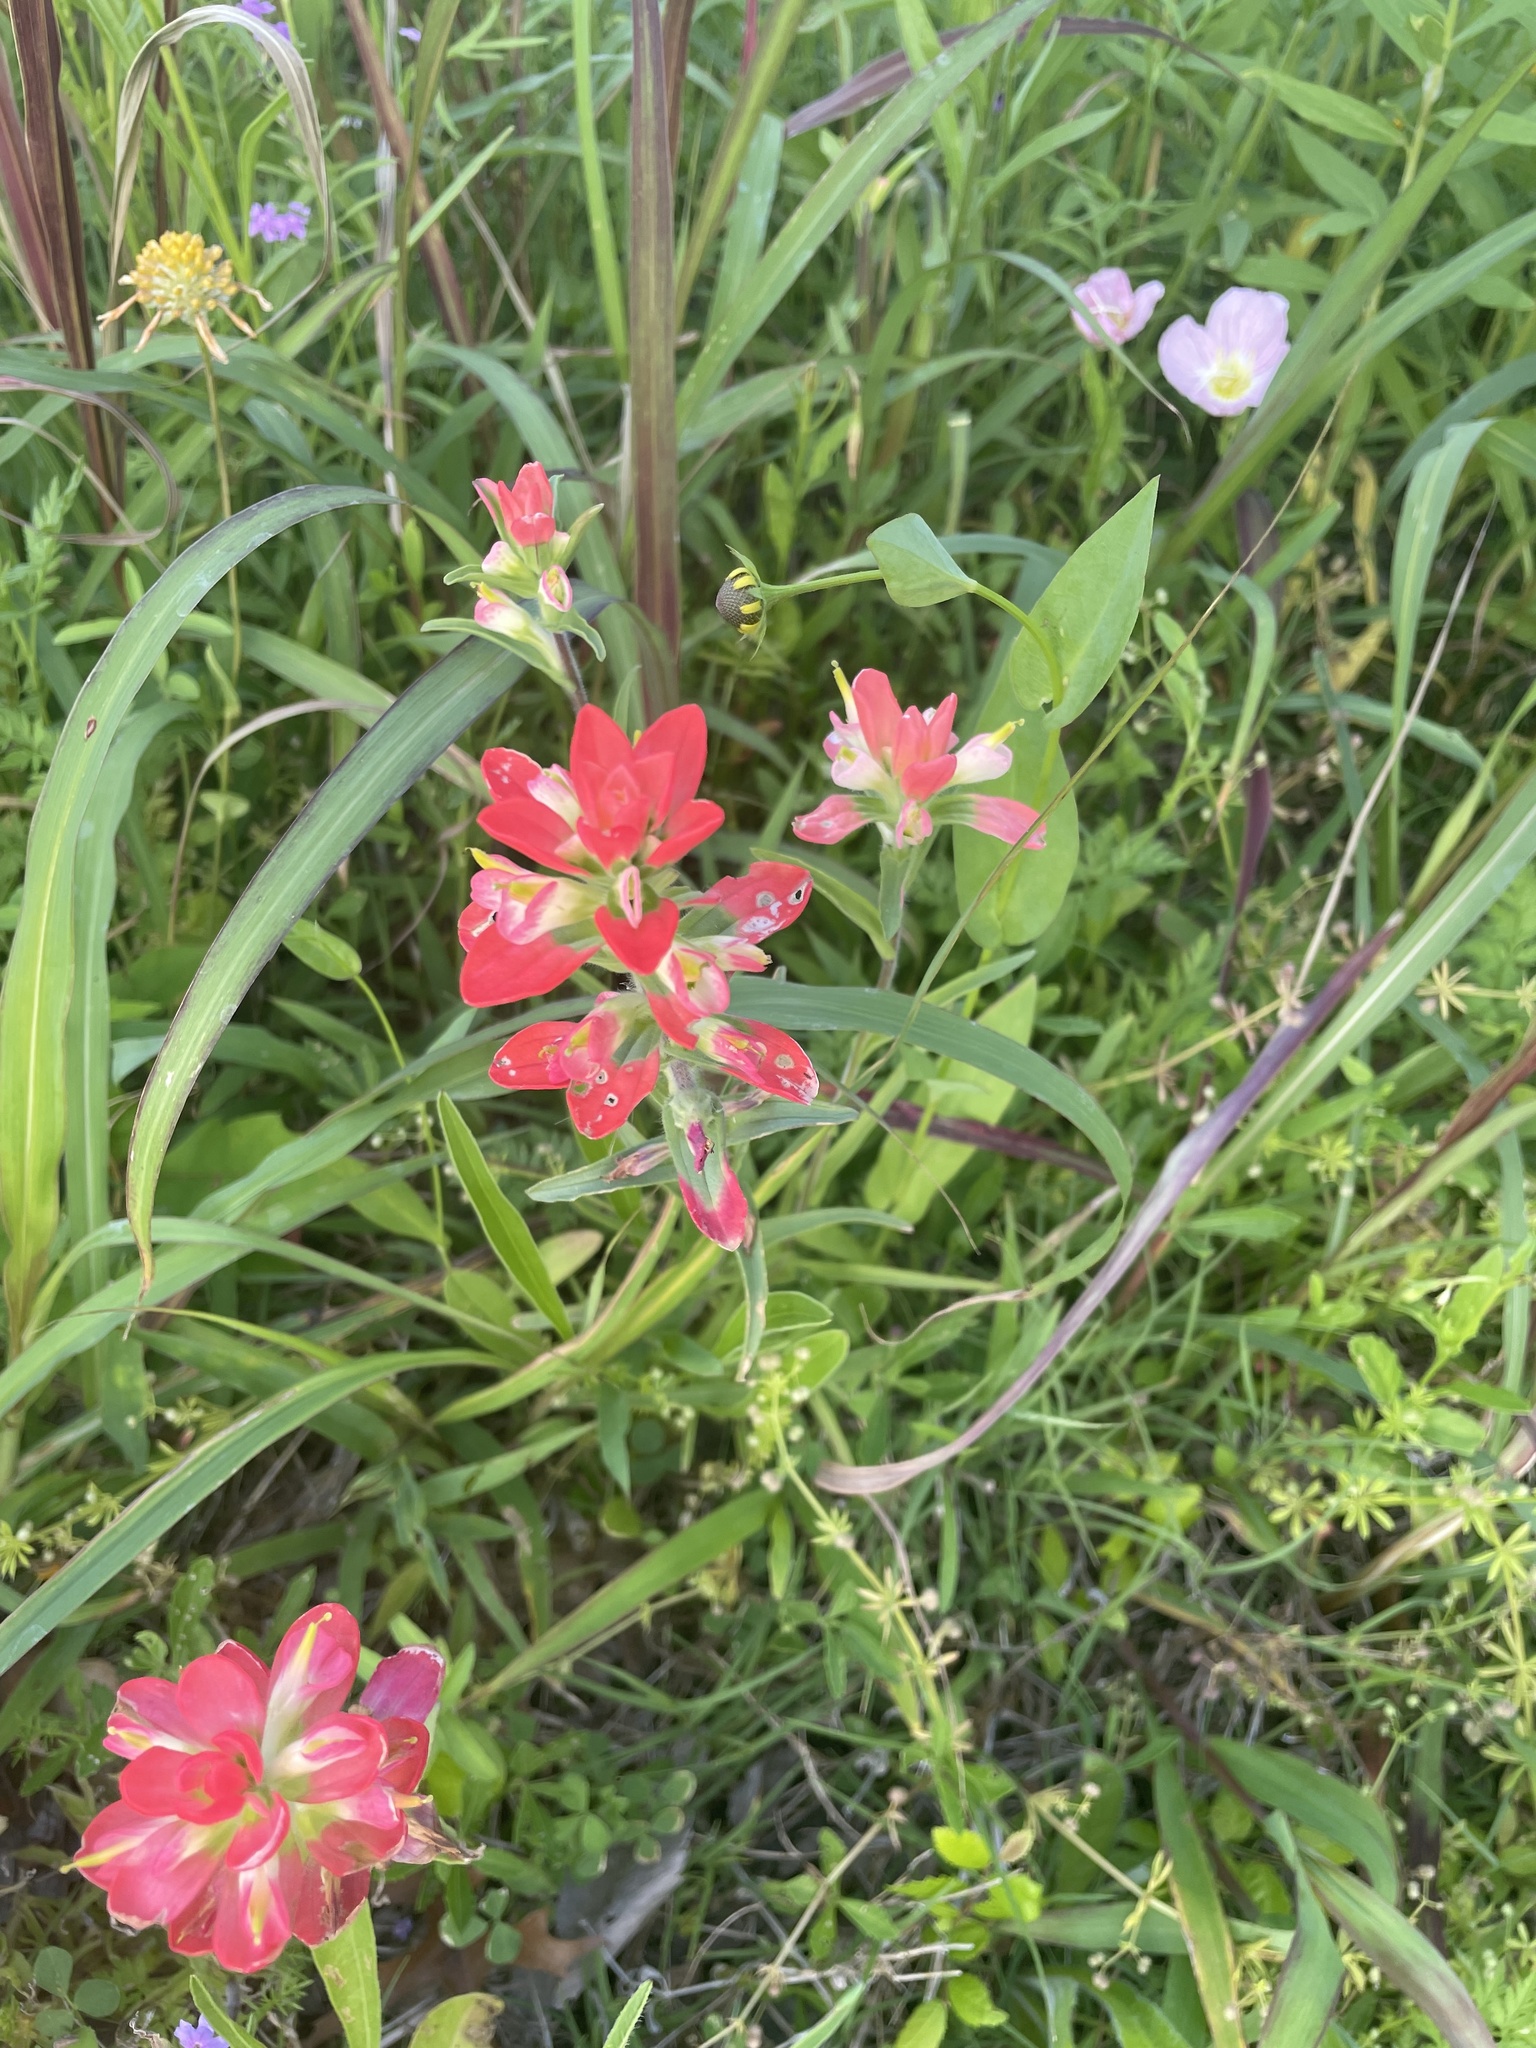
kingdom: Plantae
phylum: Tracheophyta
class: Magnoliopsida
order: Lamiales
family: Orobanchaceae
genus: Castilleja
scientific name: Castilleja indivisa
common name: Texas paintbrush
